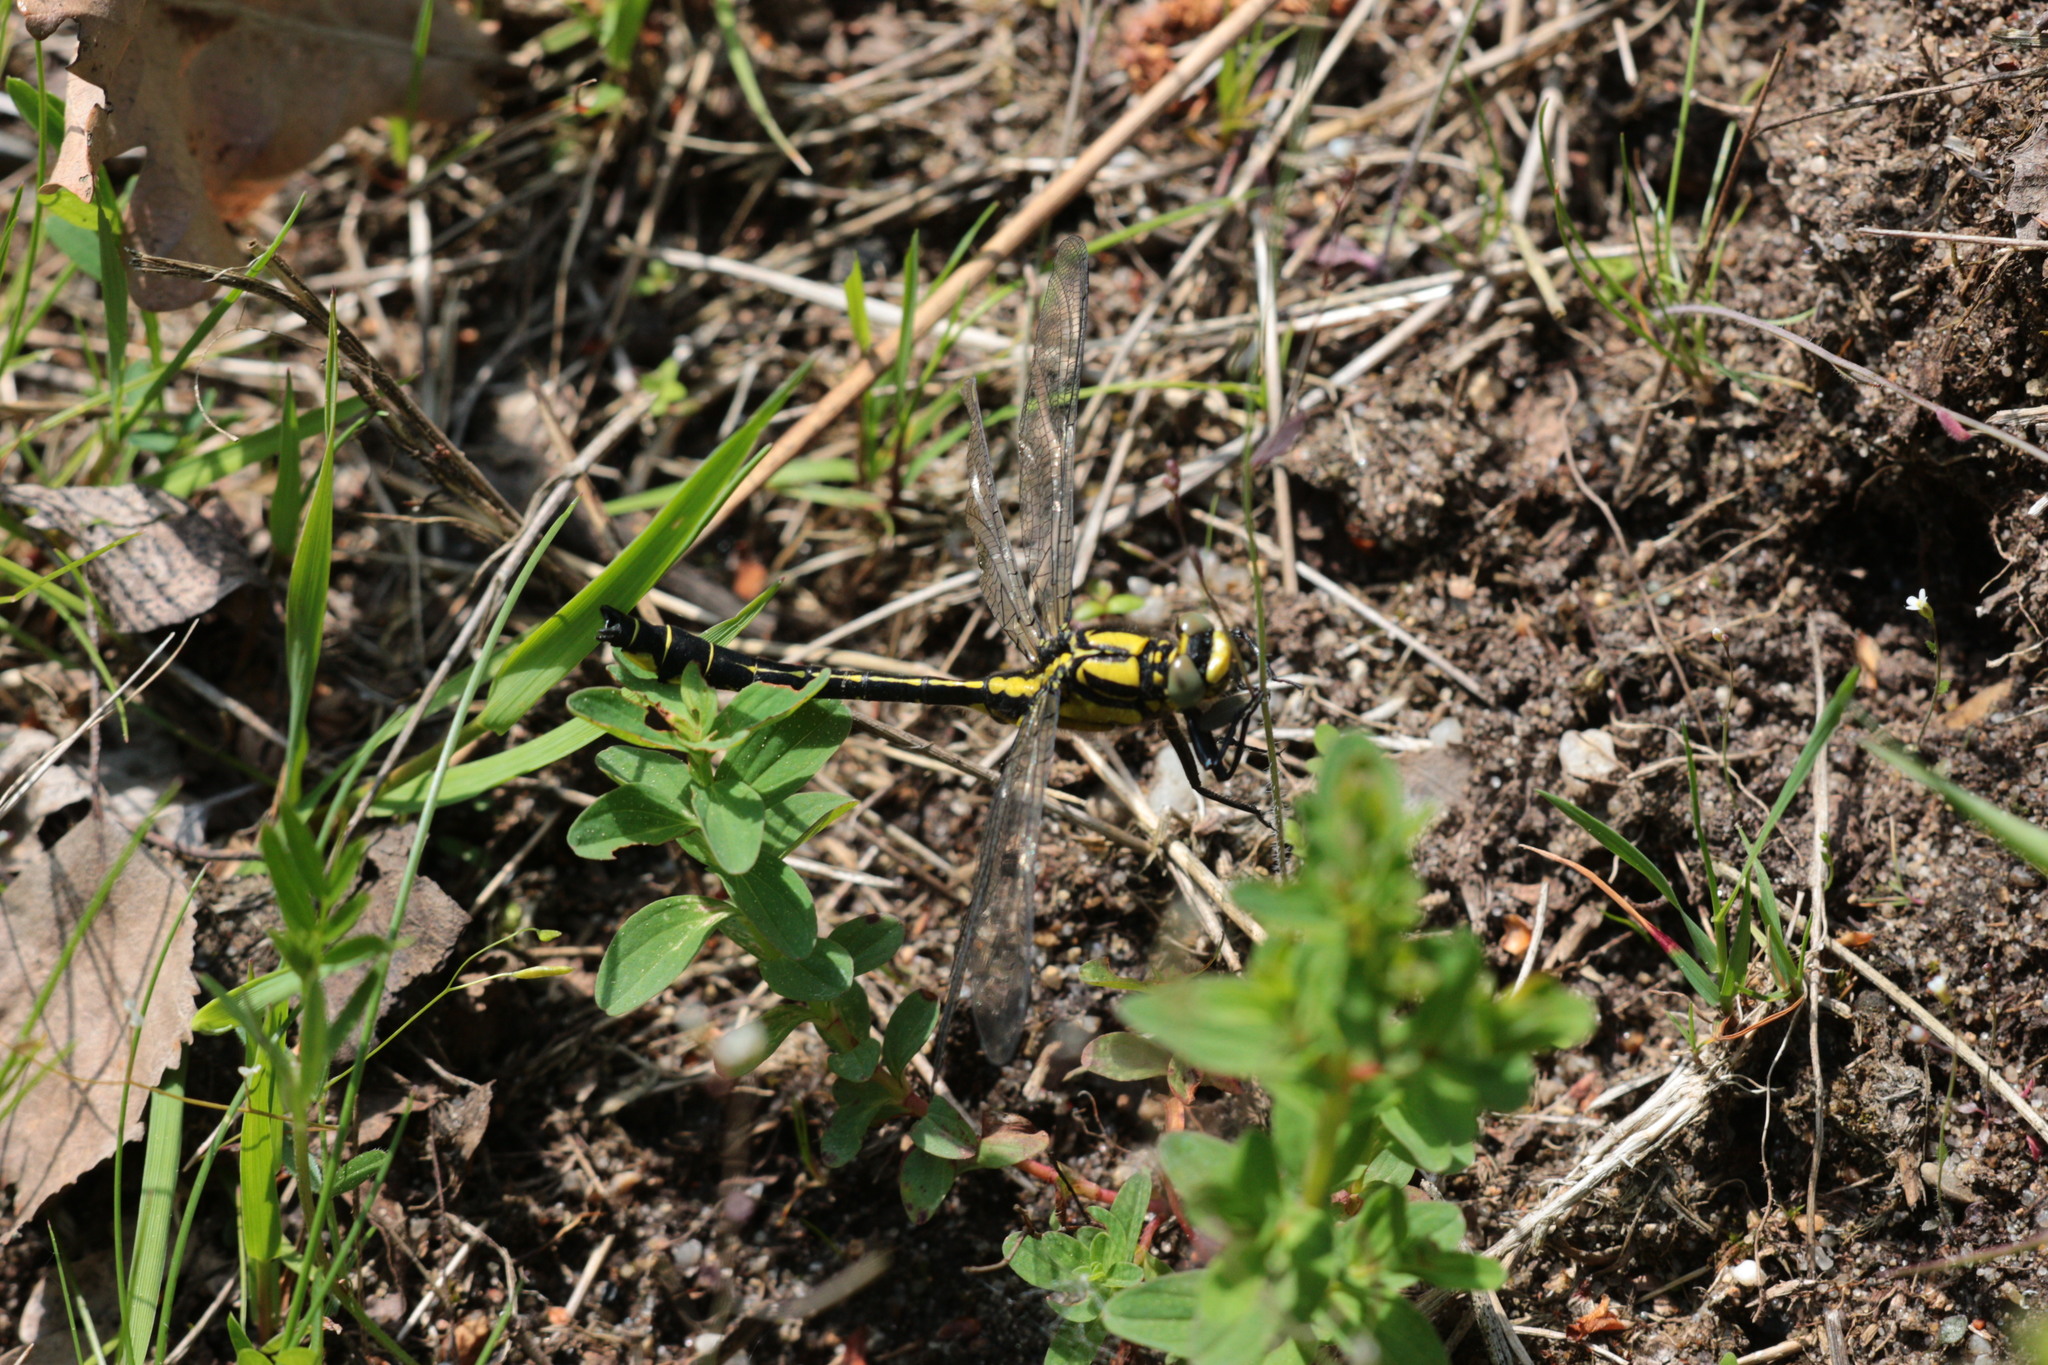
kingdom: Animalia
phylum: Arthropoda
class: Insecta
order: Odonata
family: Gomphidae
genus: Gomphus
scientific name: Gomphus vulgatissimus
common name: Club-tailed dragonfly
